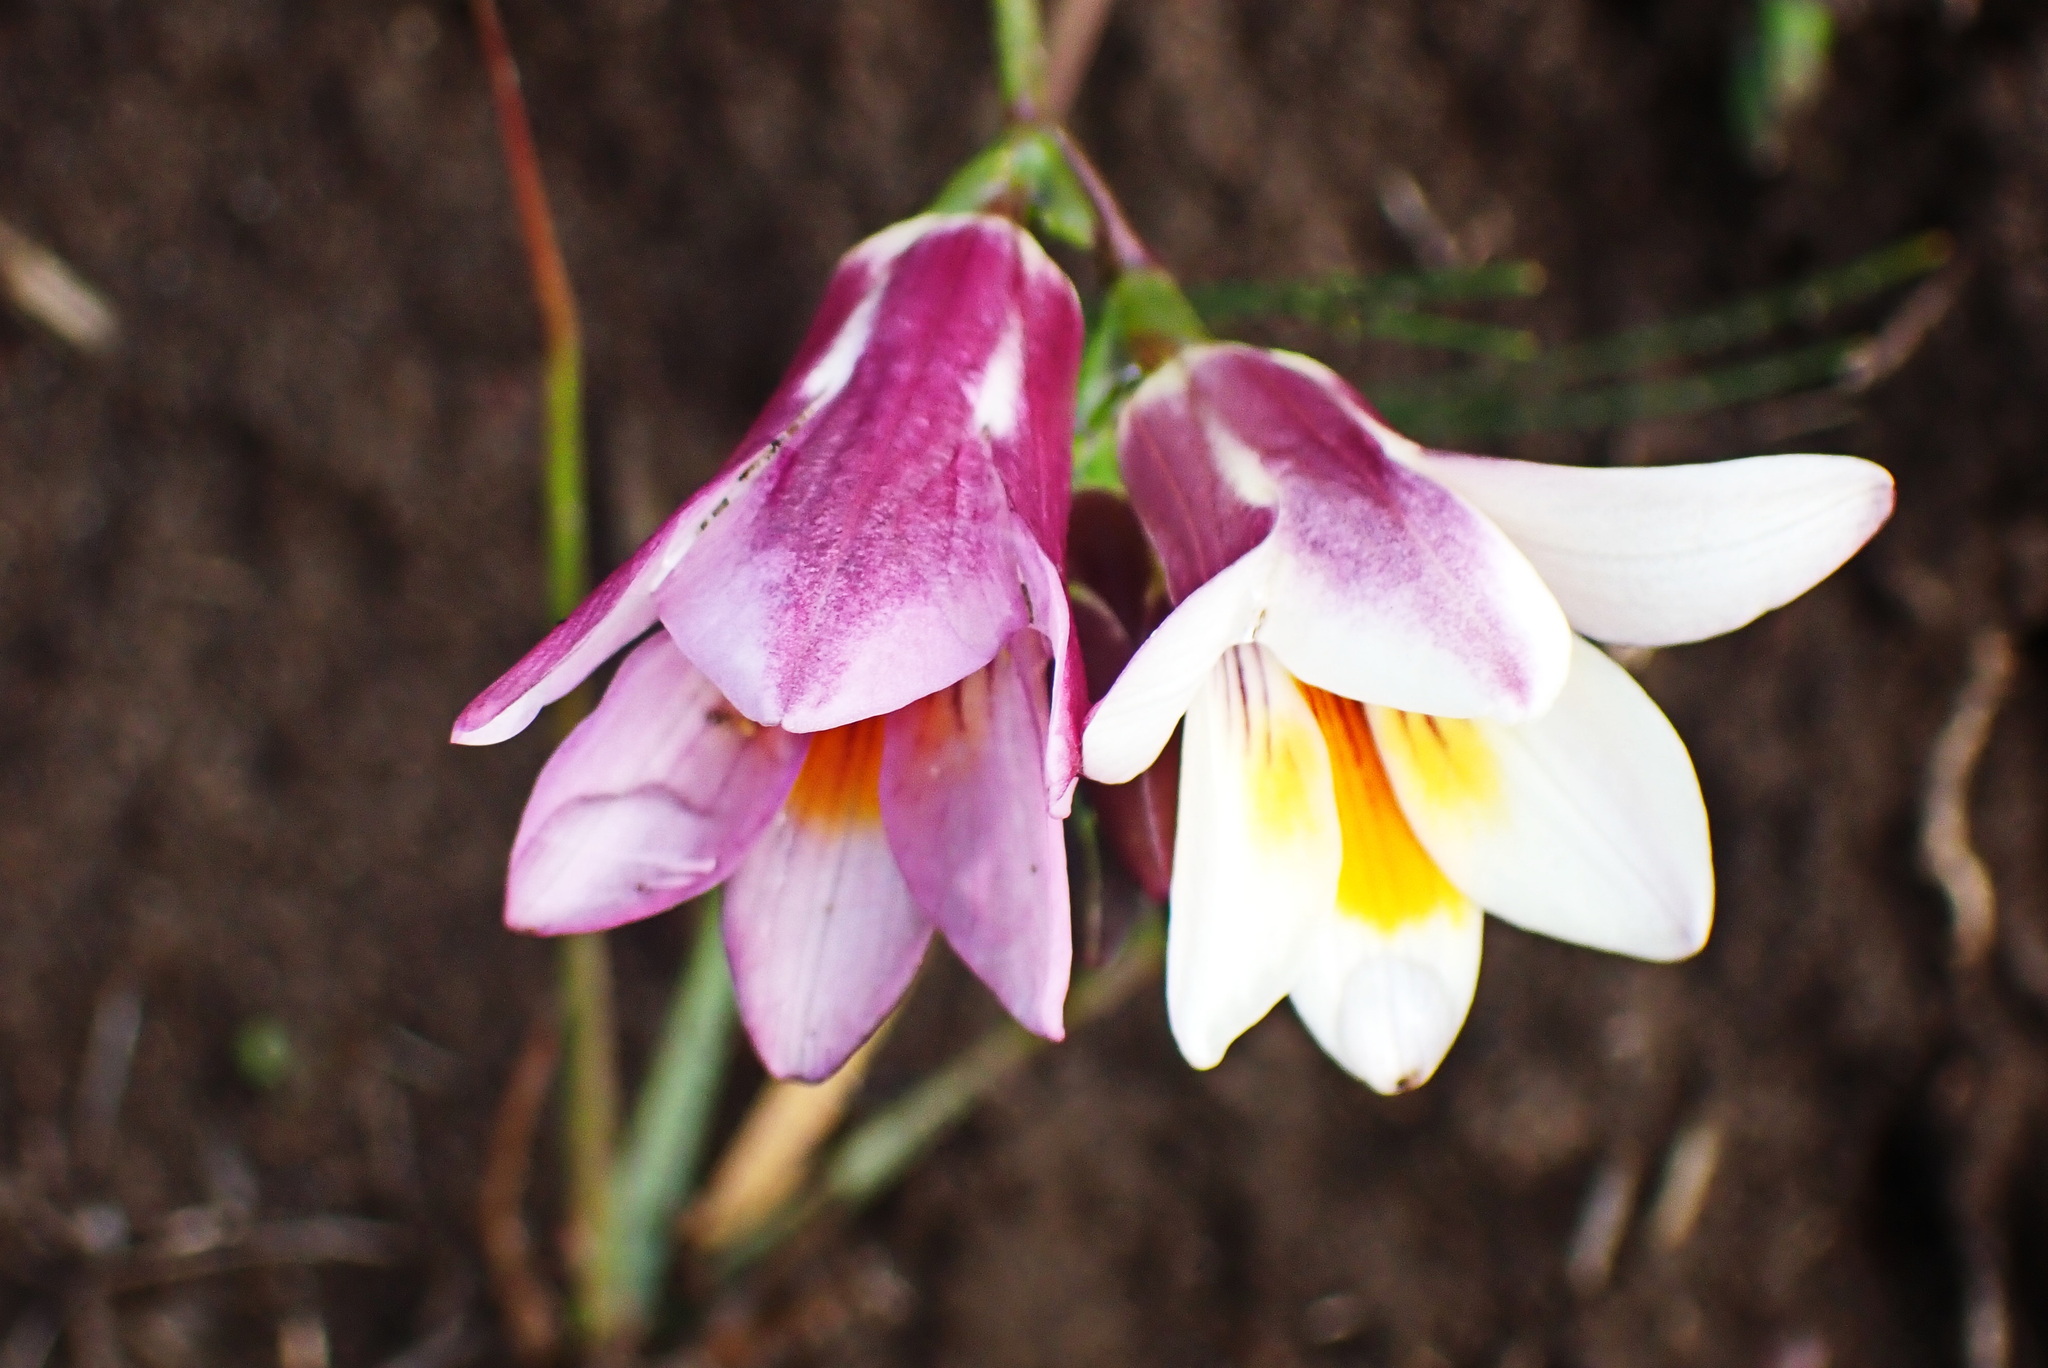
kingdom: Plantae
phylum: Tracheophyta
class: Liliopsida
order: Asparagales
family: Iridaceae
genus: Freesia
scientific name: Freesia leichtlinii
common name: Freesia
